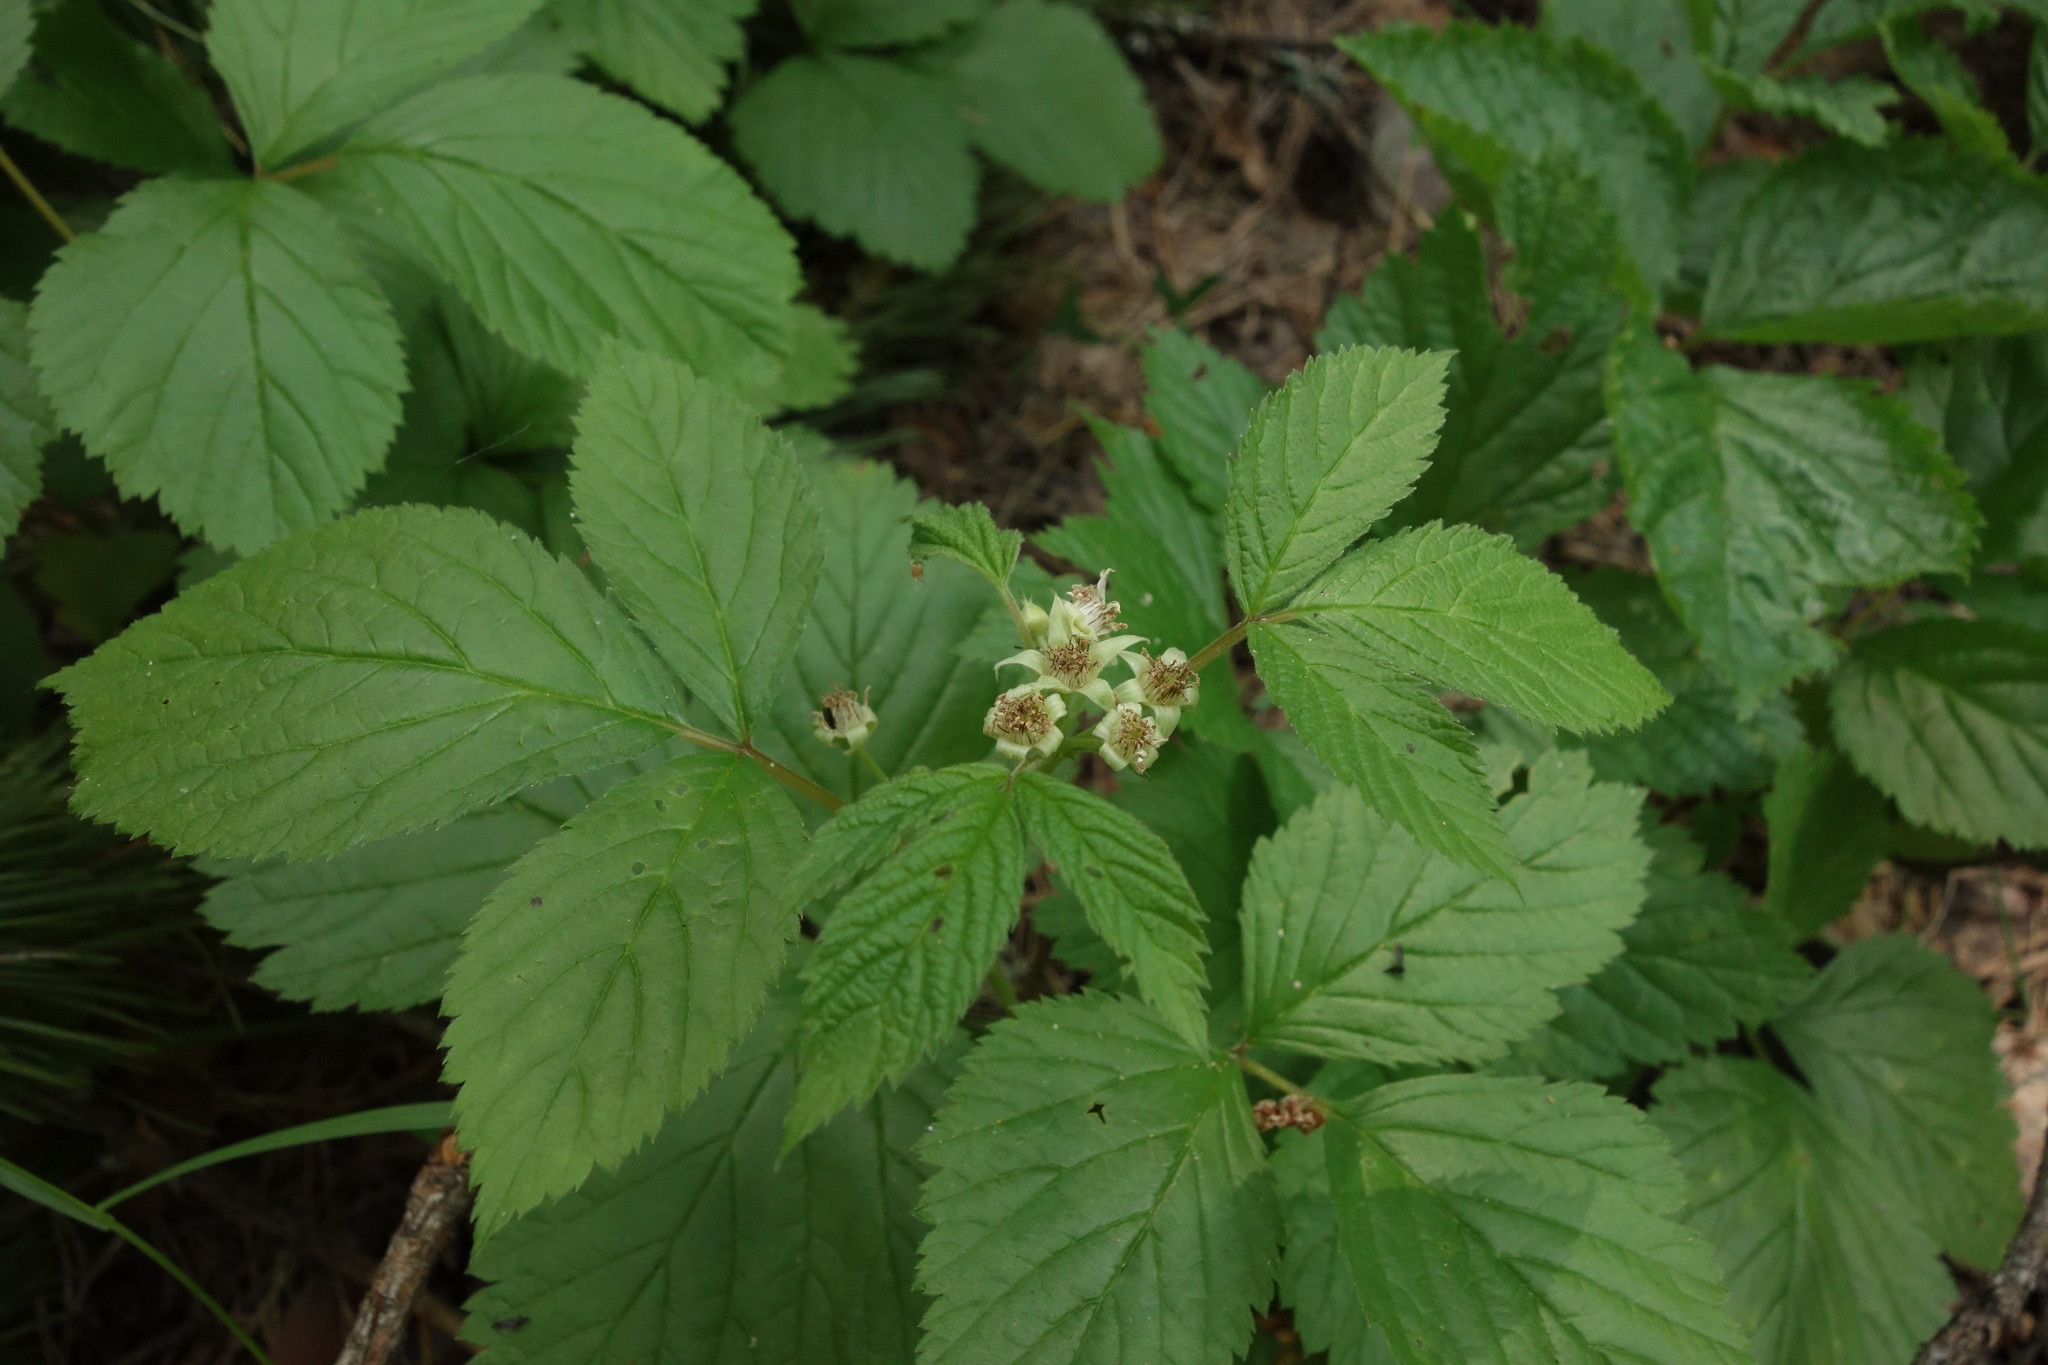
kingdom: Plantae
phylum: Tracheophyta
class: Magnoliopsida
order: Rosales
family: Rosaceae
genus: Rubus
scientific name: Rubus saxatilis
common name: Stone bramble
